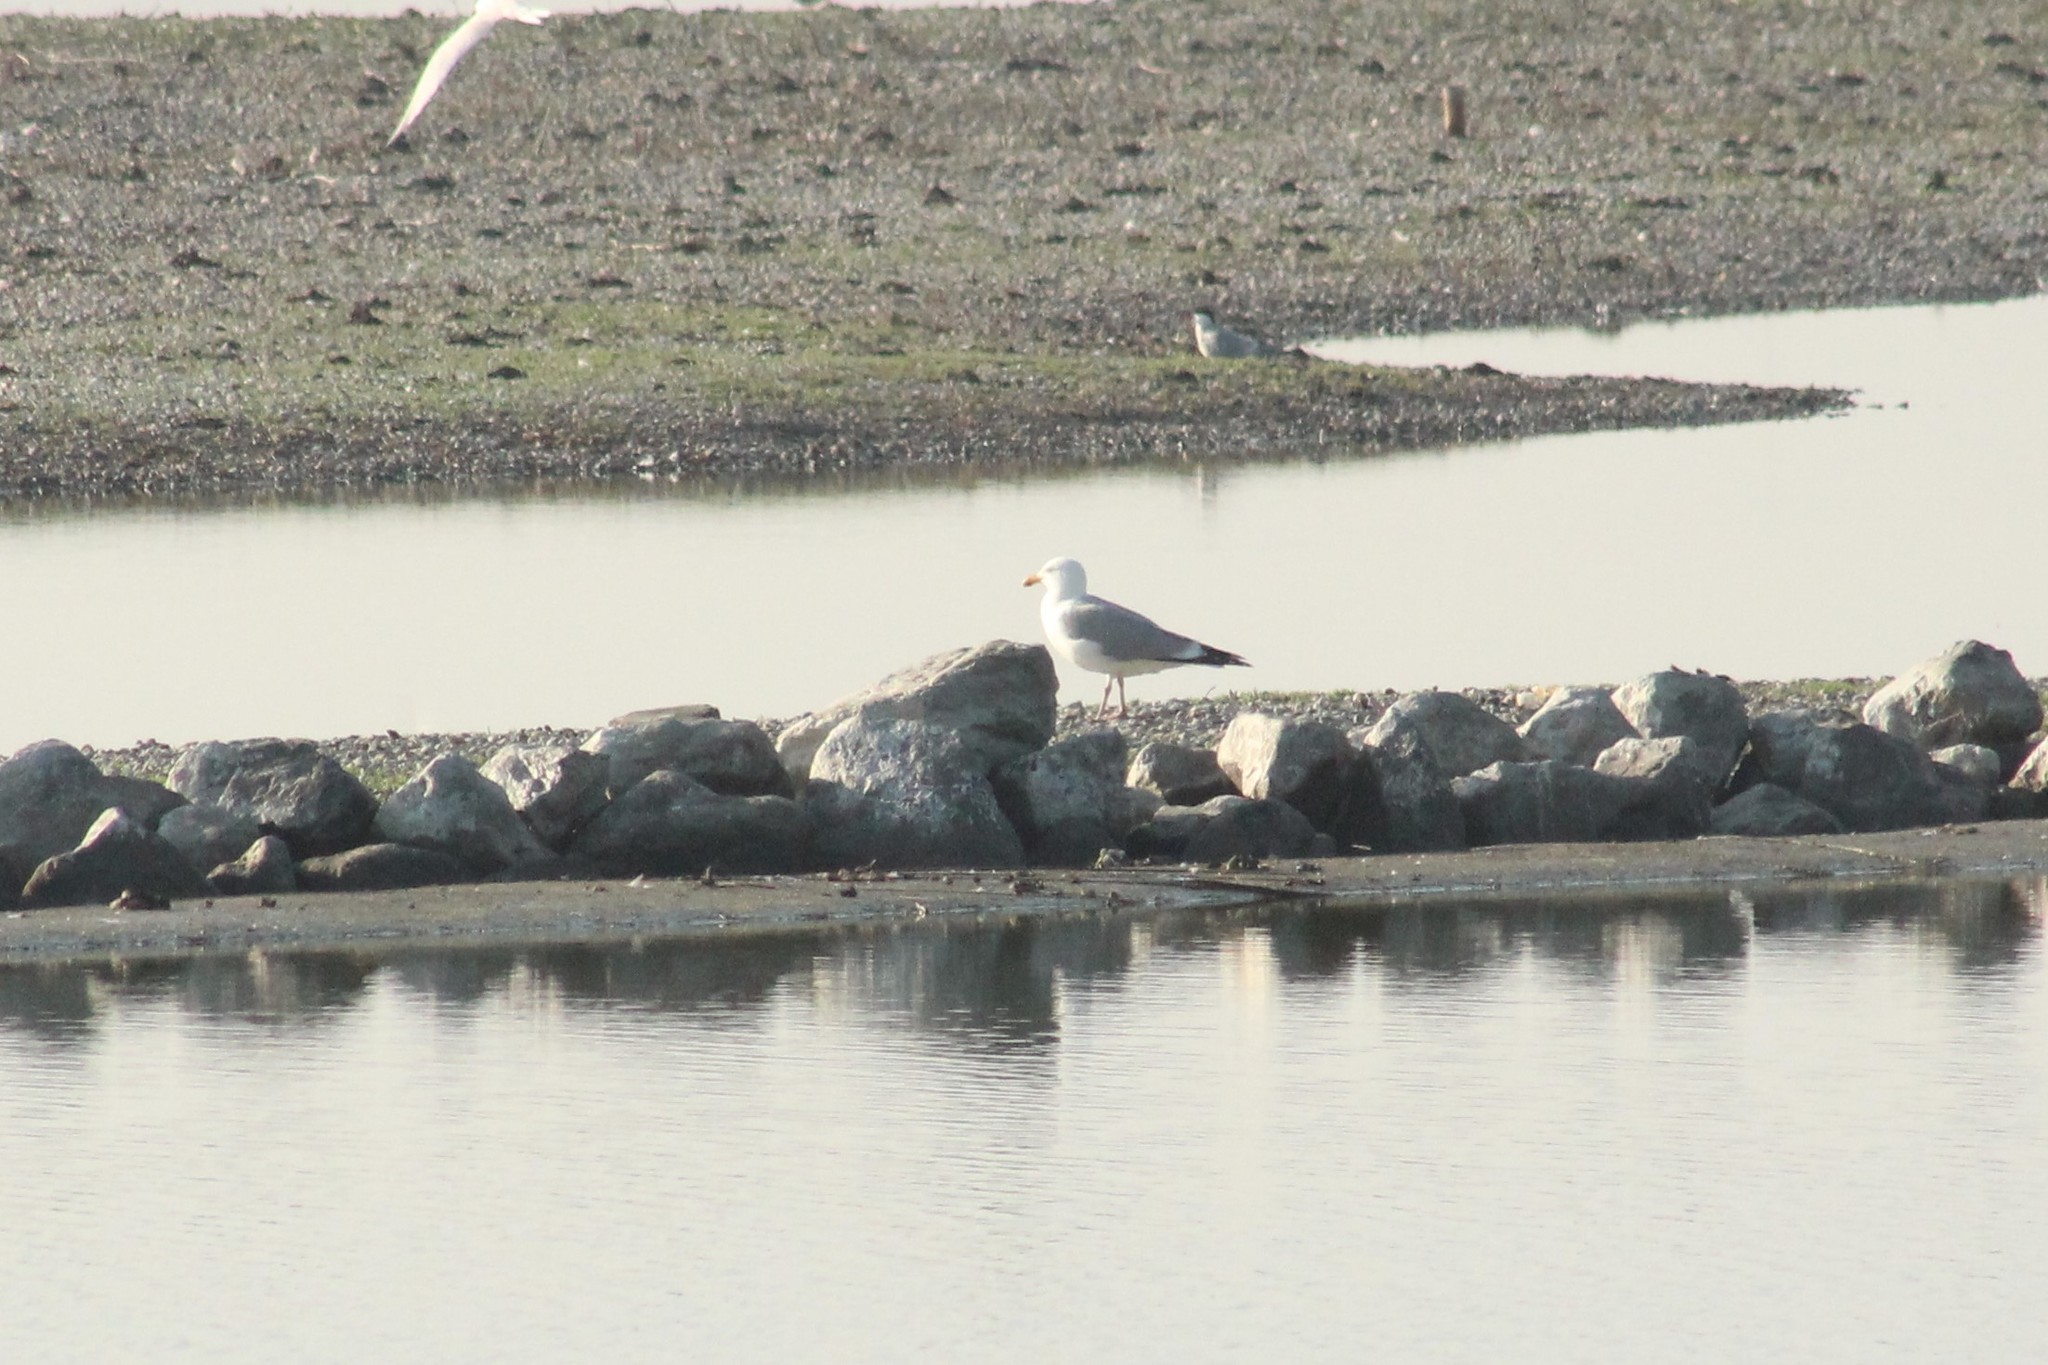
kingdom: Animalia
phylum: Chordata
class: Aves
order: Charadriiformes
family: Laridae
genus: Larus
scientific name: Larus argentatus
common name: Herring gull
